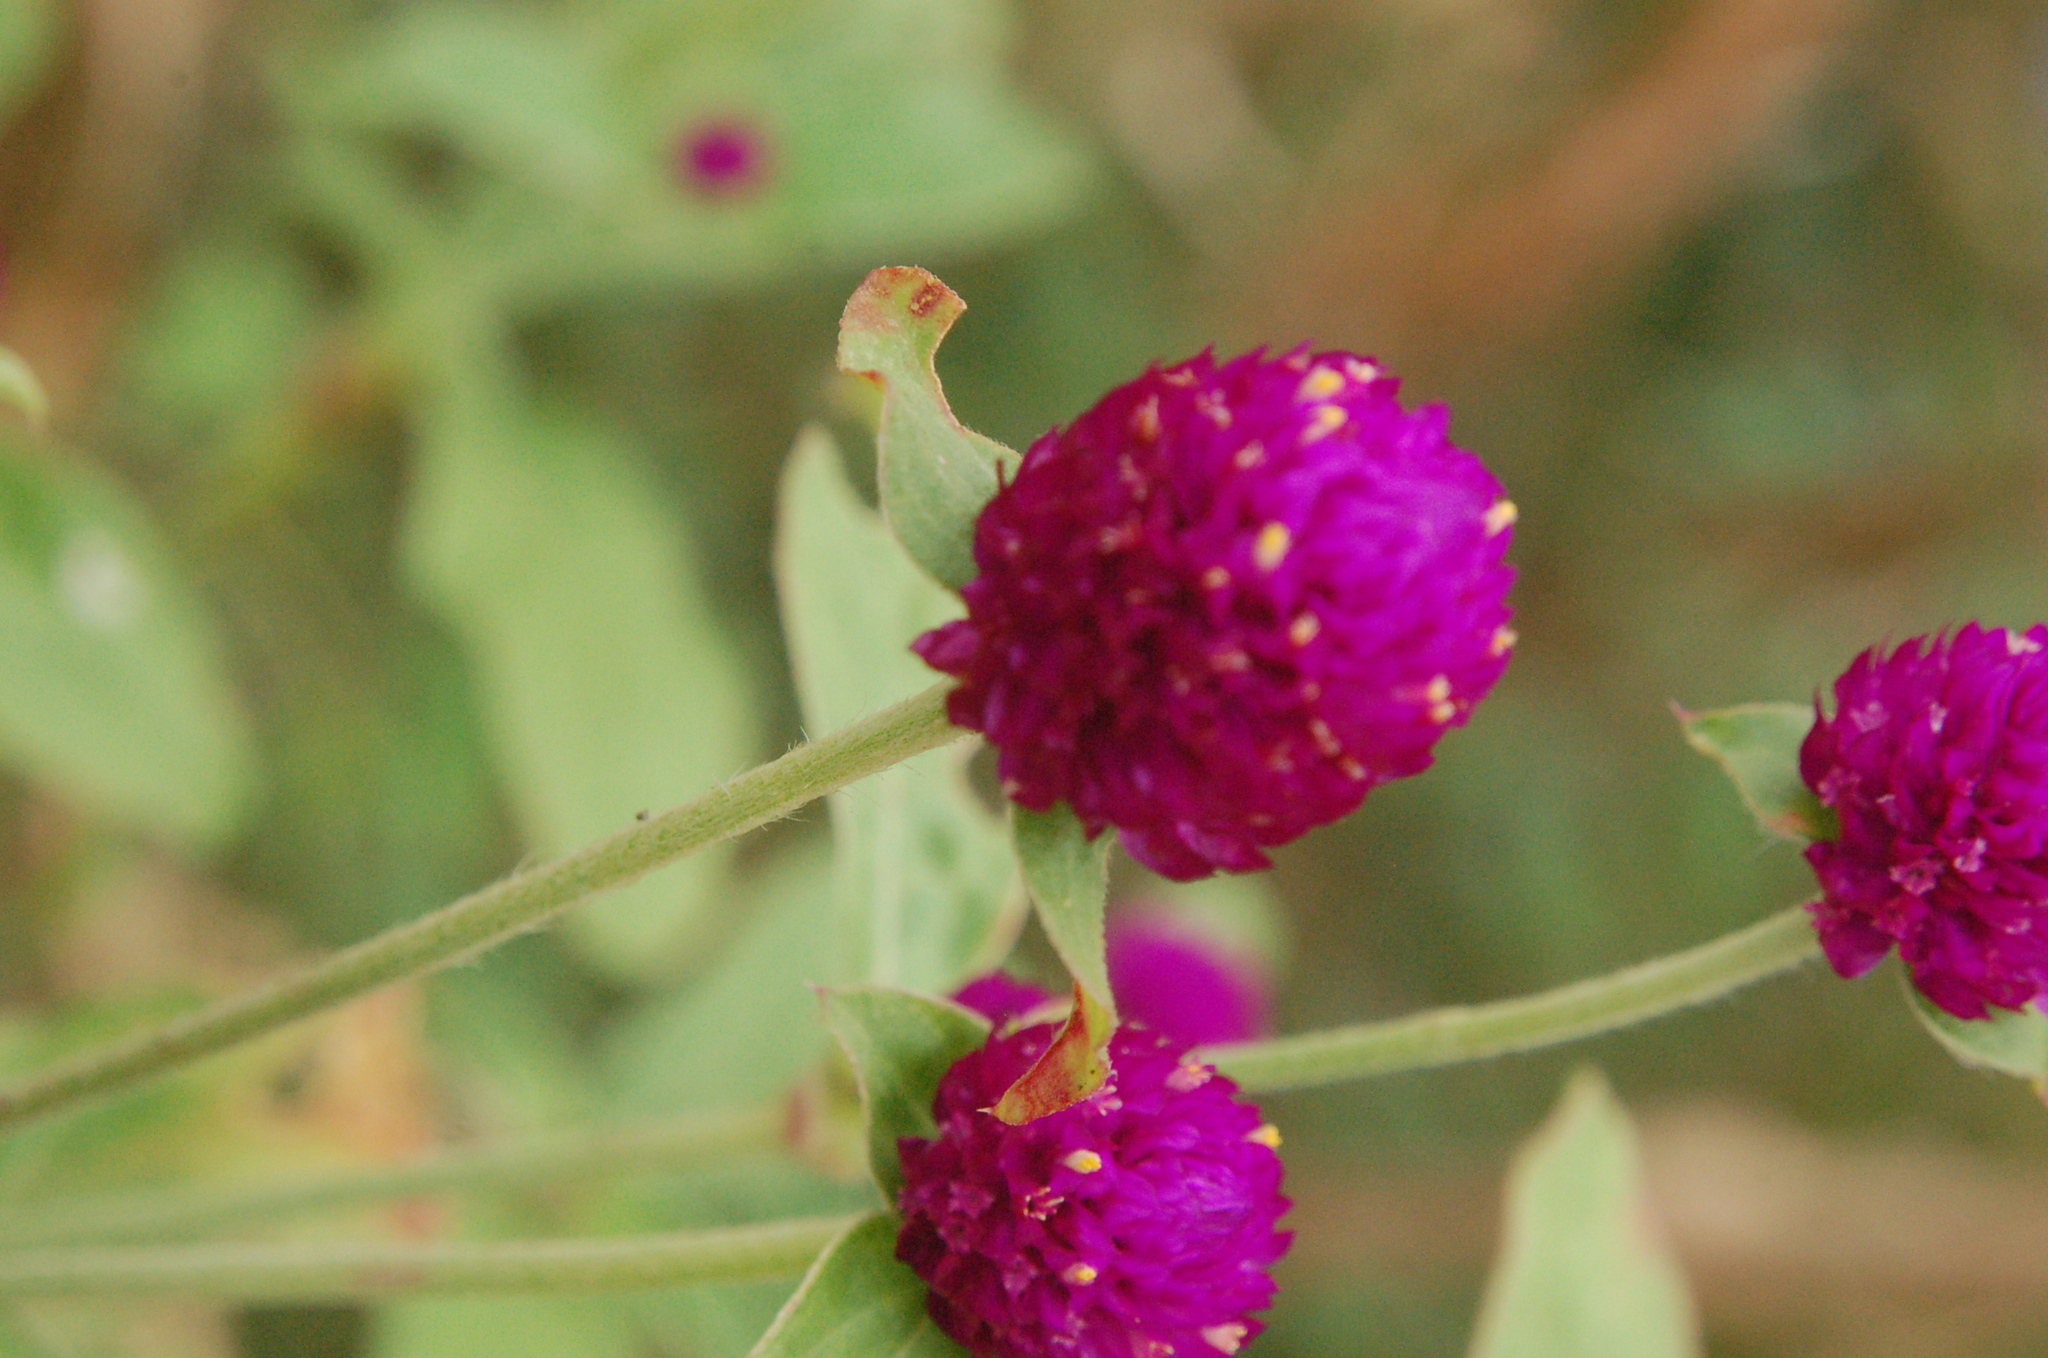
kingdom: Plantae
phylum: Tracheophyta
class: Magnoliopsida
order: Caryophyllales
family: Amaranthaceae
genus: Gomphrena
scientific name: Gomphrena globosa
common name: Common globe amaranth
